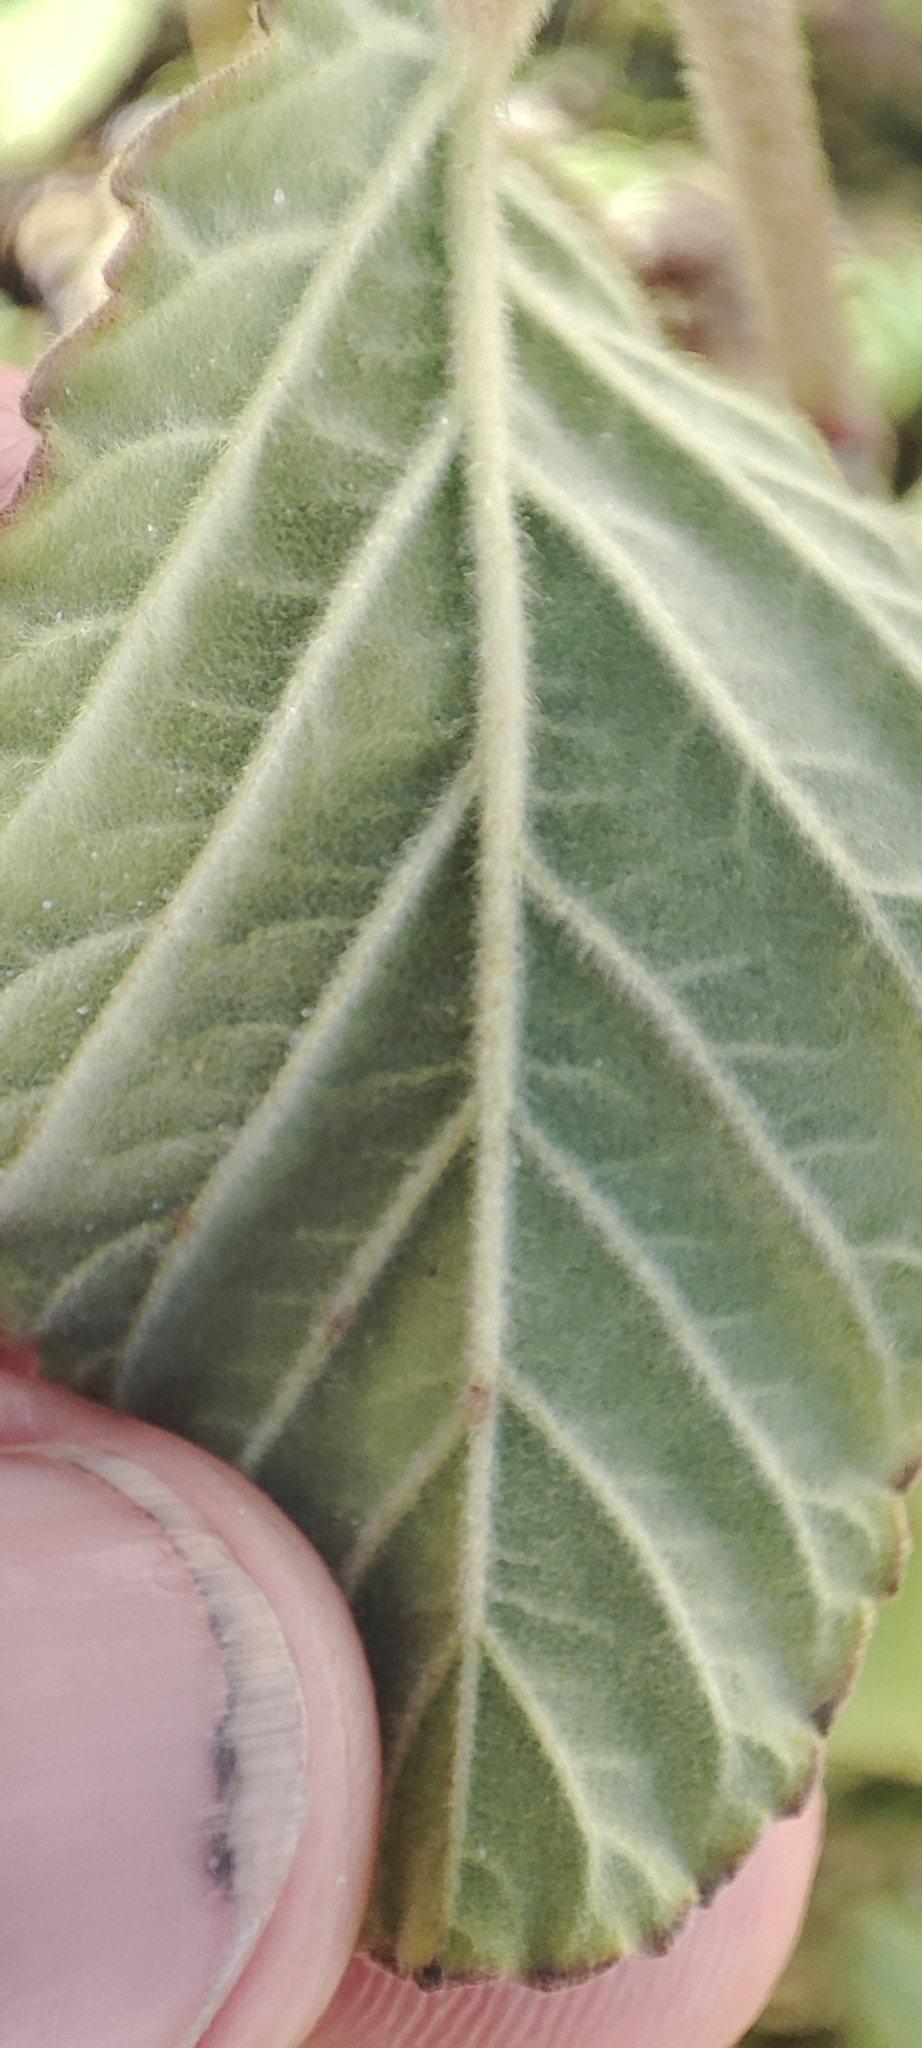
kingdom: Plantae
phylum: Tracheophyta
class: Magnoliopsida
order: Malvales
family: Malvaceae
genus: Waltheria
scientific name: Waltheria indica
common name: Leather-coat
